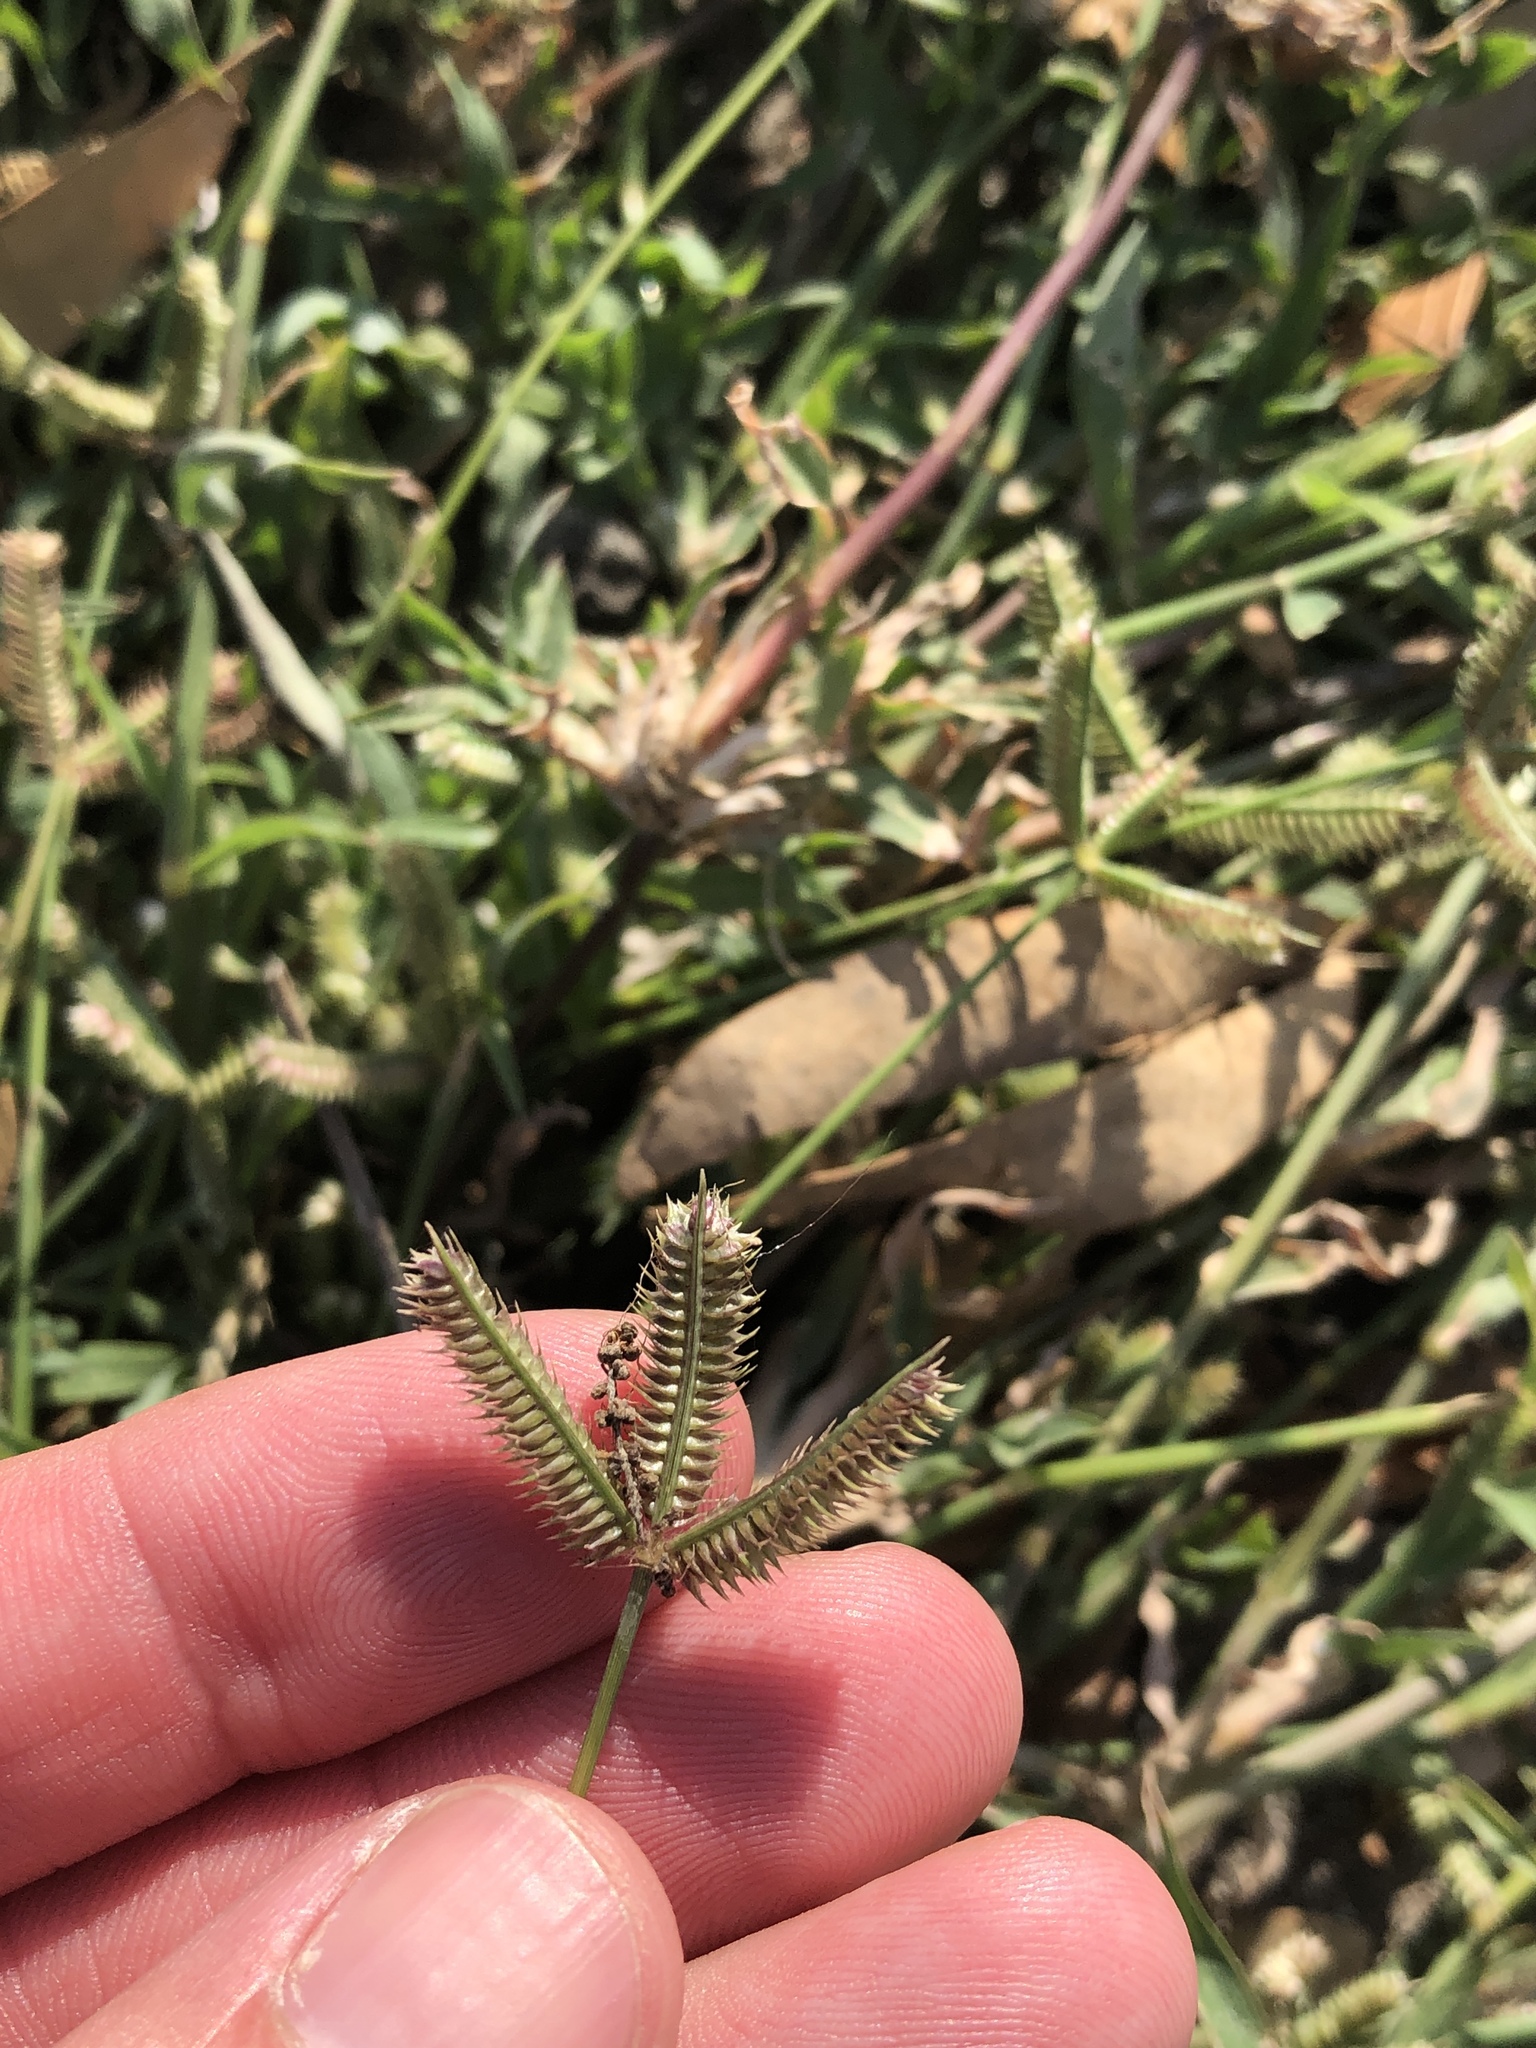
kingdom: Plantae
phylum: Tracheophyta
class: Liliopsida
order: Poales
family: Poaceae
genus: Dactyloctenium
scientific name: Dactyloctenium aegyptium
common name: Egyptian grass
